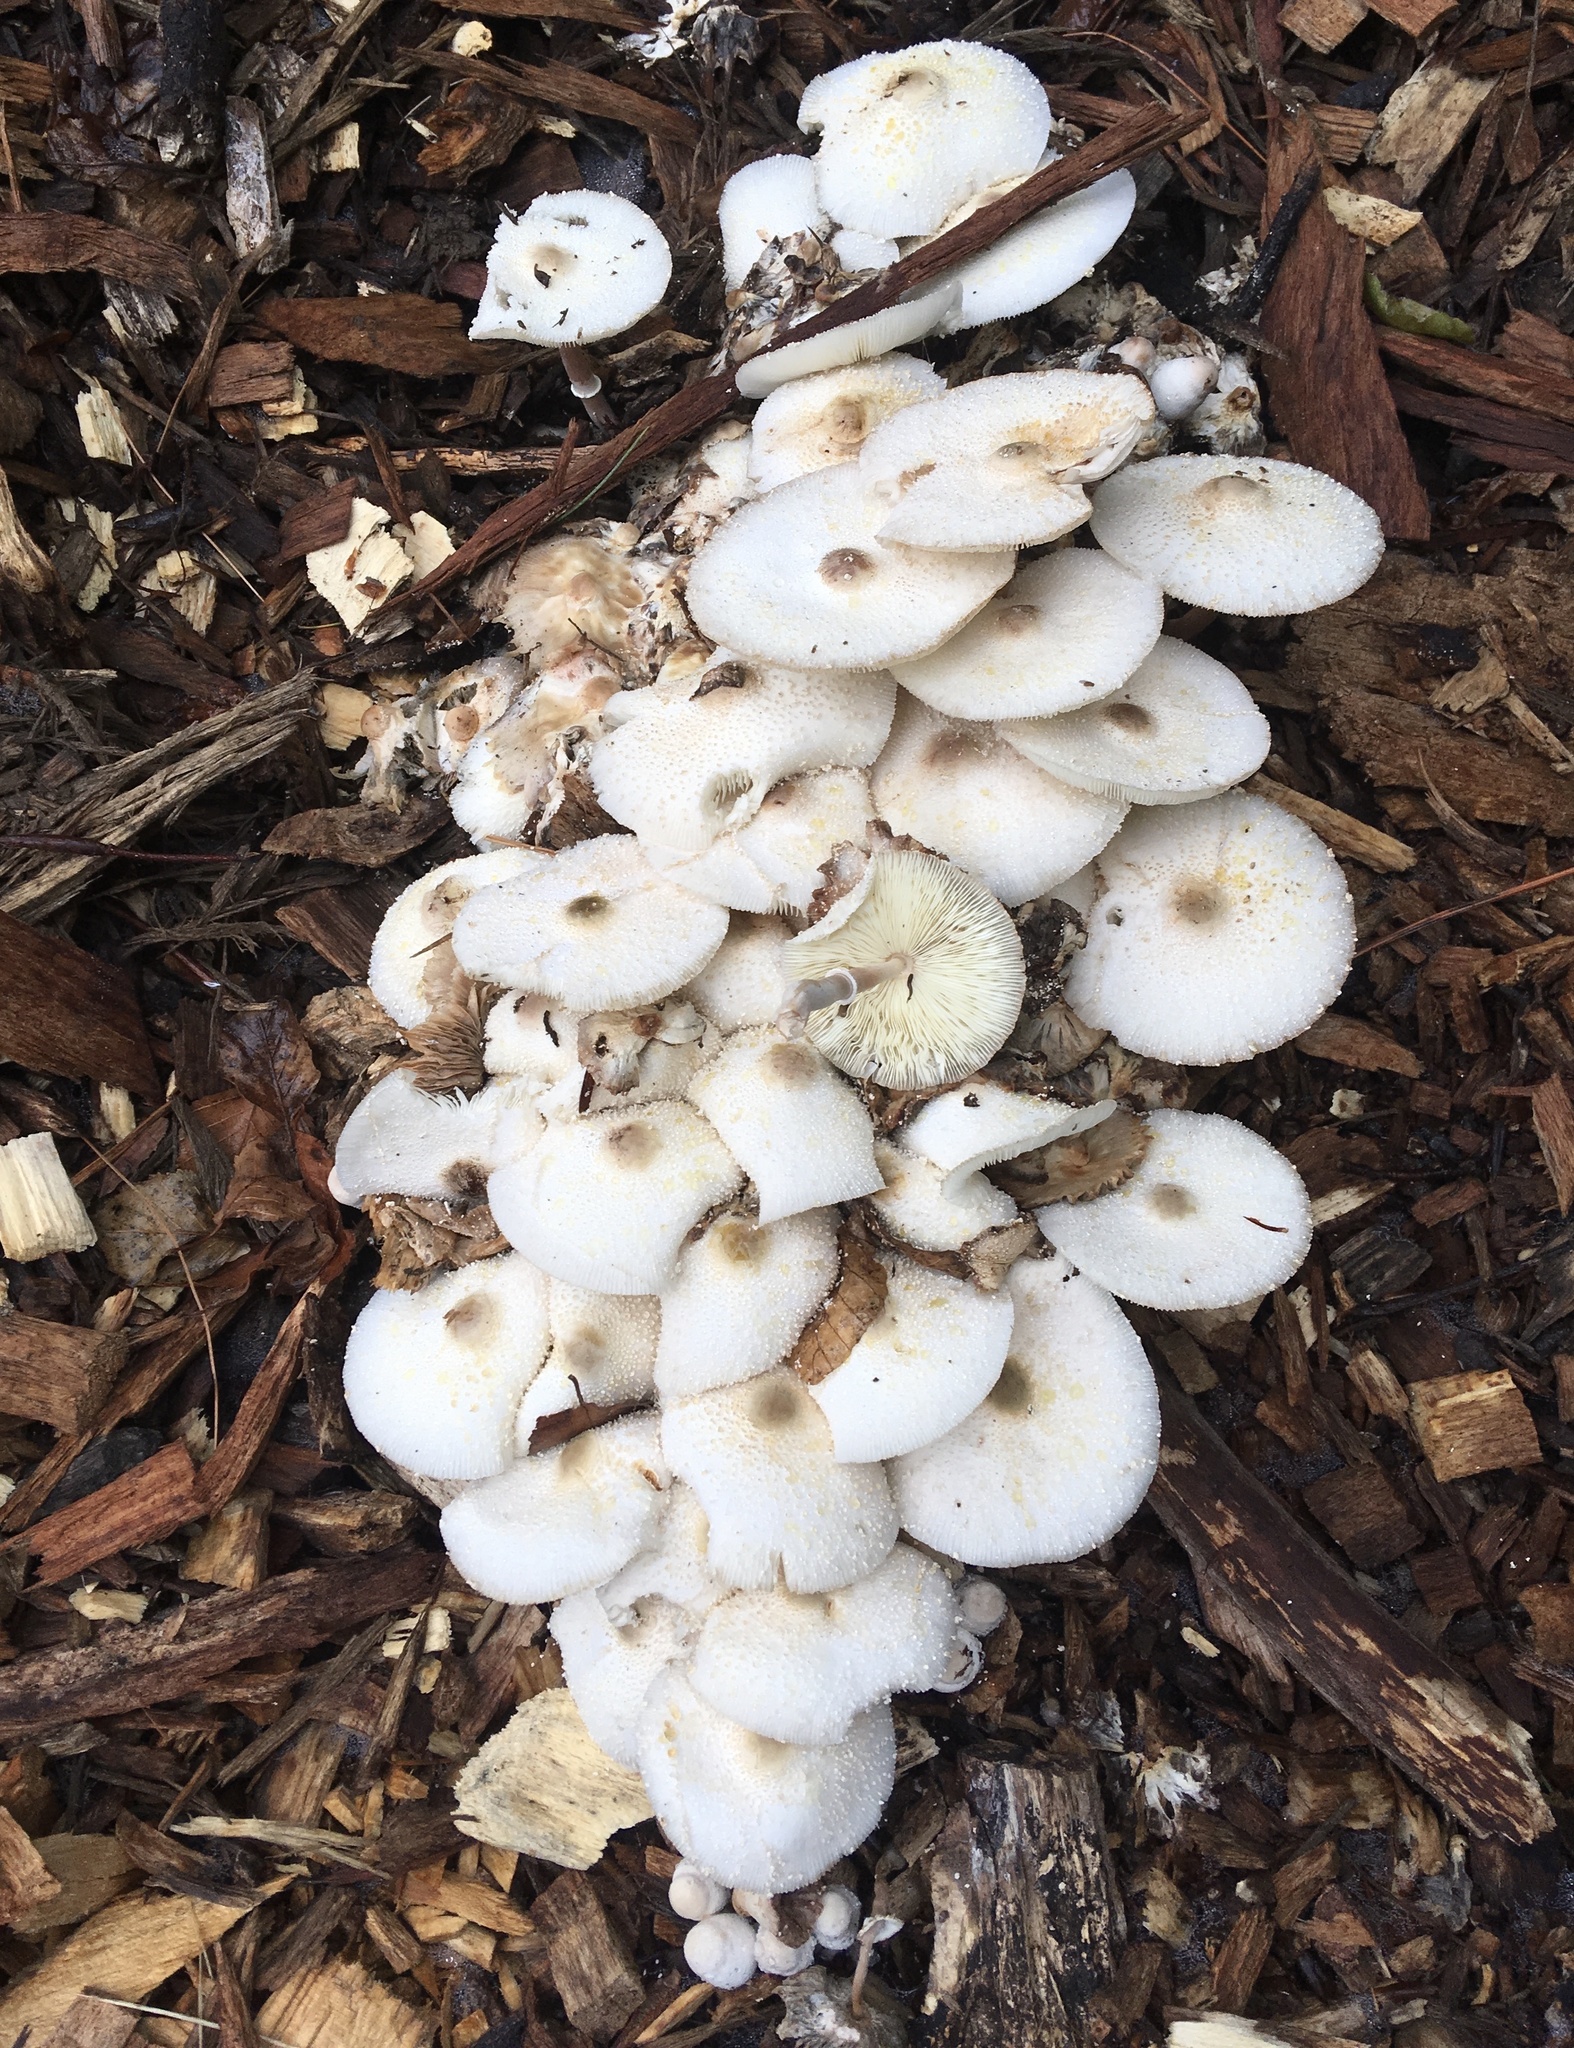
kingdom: Fungi
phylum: Basidiomycota
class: Agaricomycetes
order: Agaricales
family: Agaricaceae
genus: Leucocoprinus
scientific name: Leucocoprinus cepistipes
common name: Onion-stalk parasol
